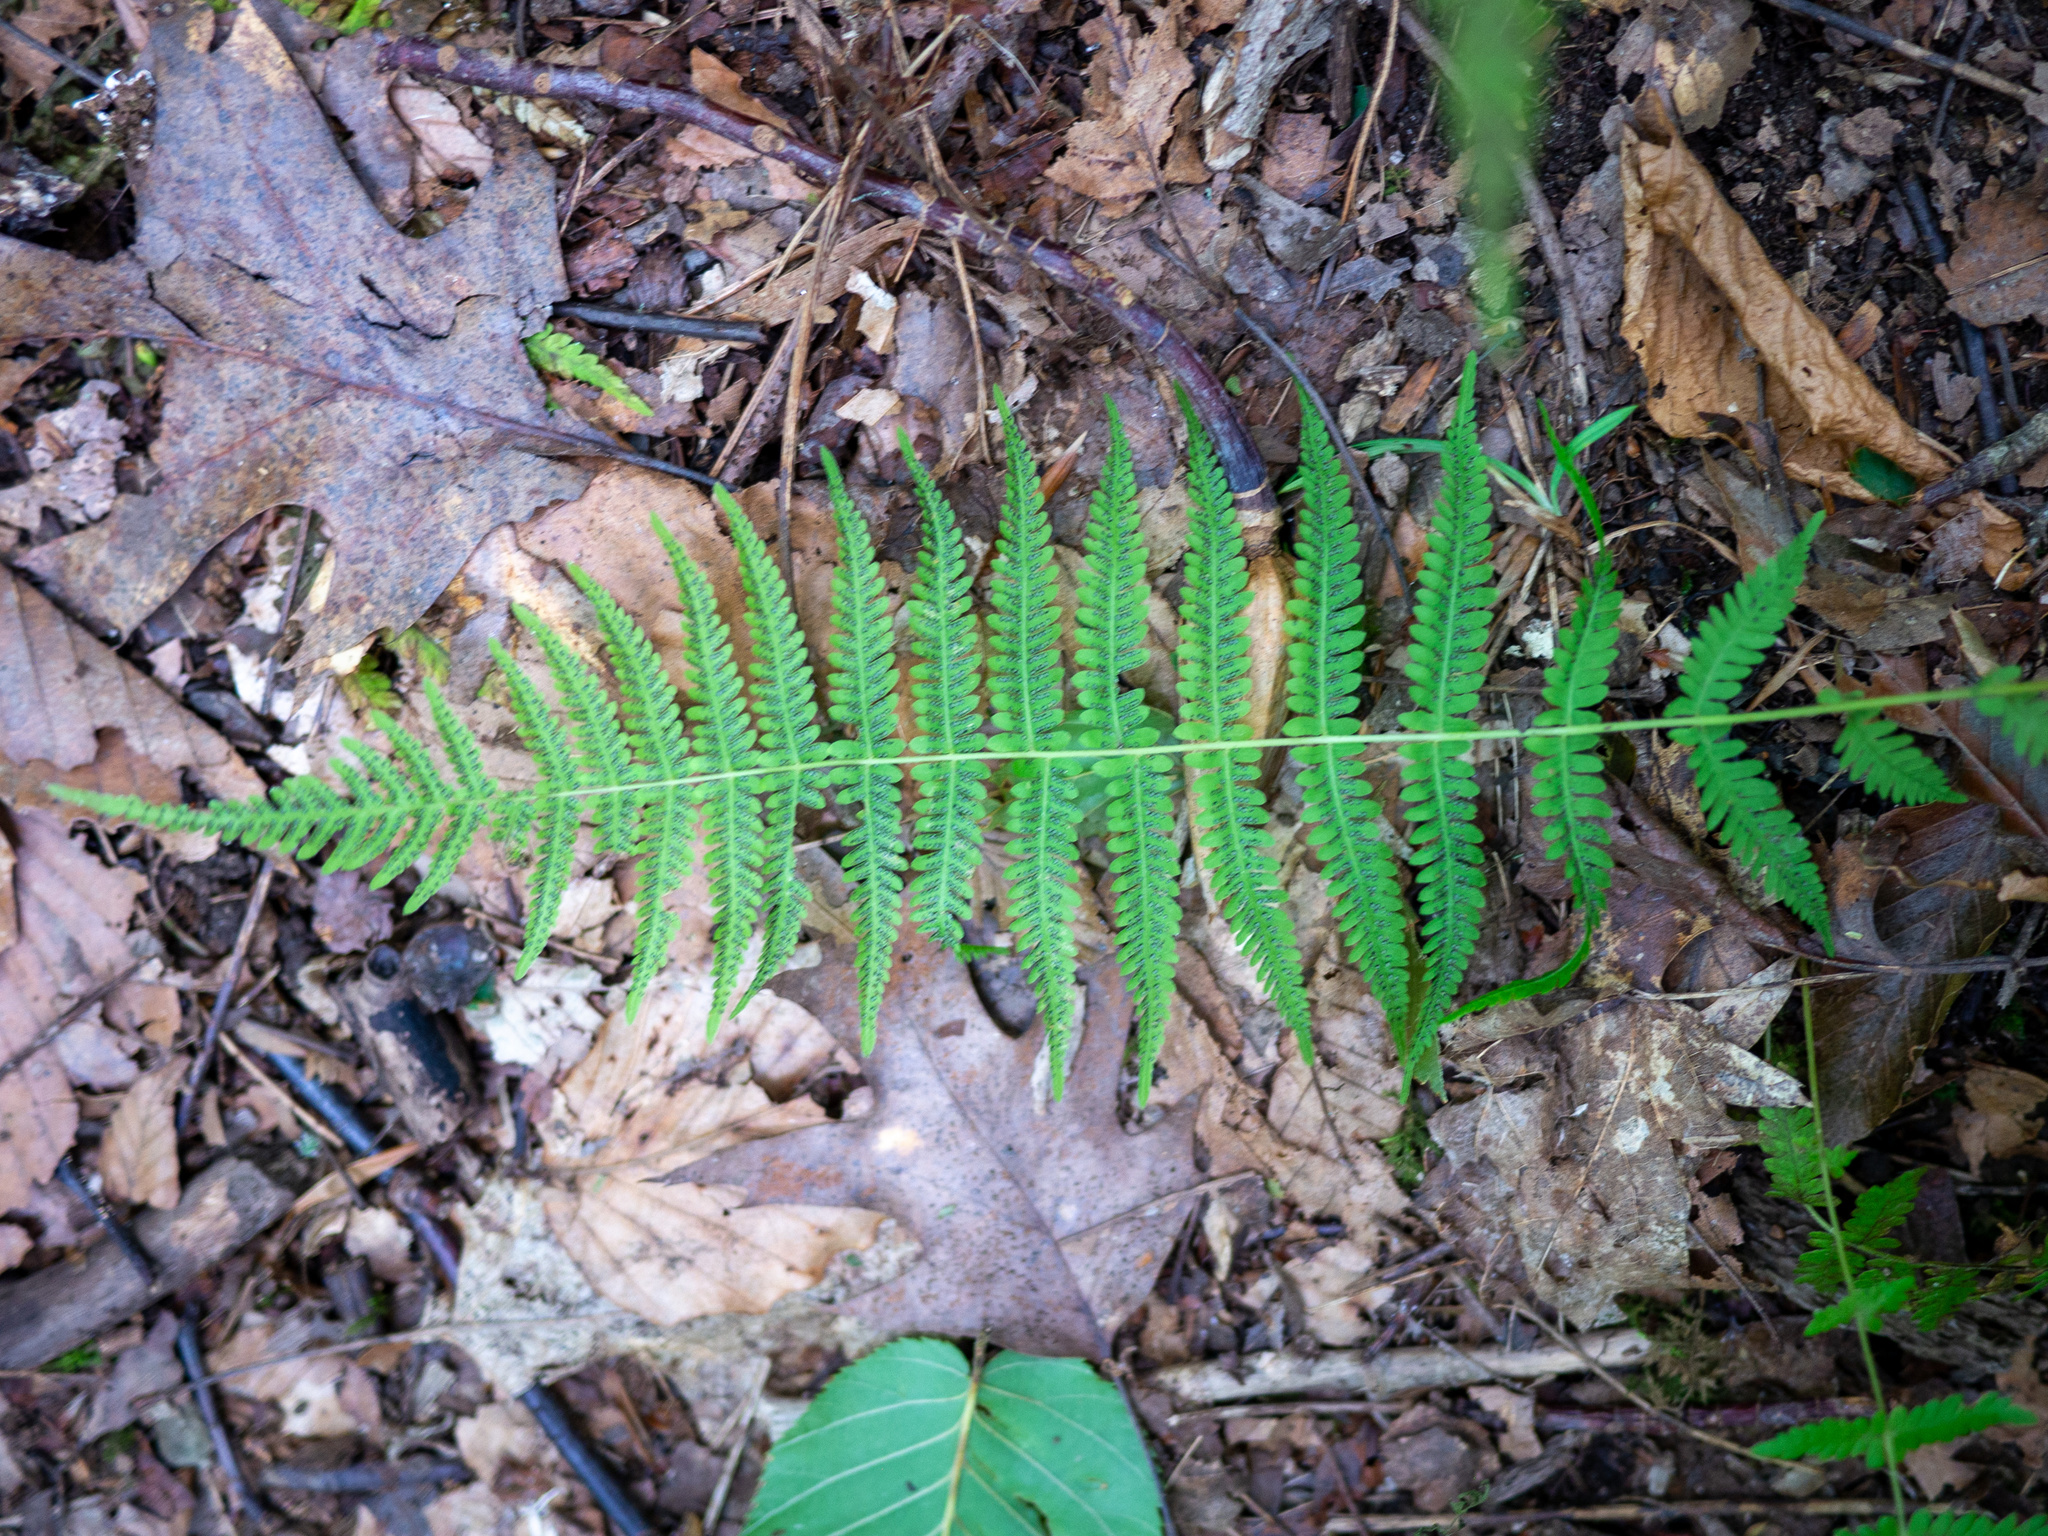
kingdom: Plantae
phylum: Tracheophyta
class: Polypodiopsida
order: Polypodiales
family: Thelypteridaceae
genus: Amauropelta
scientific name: Amauropelta noveboracensis
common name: New york fern
